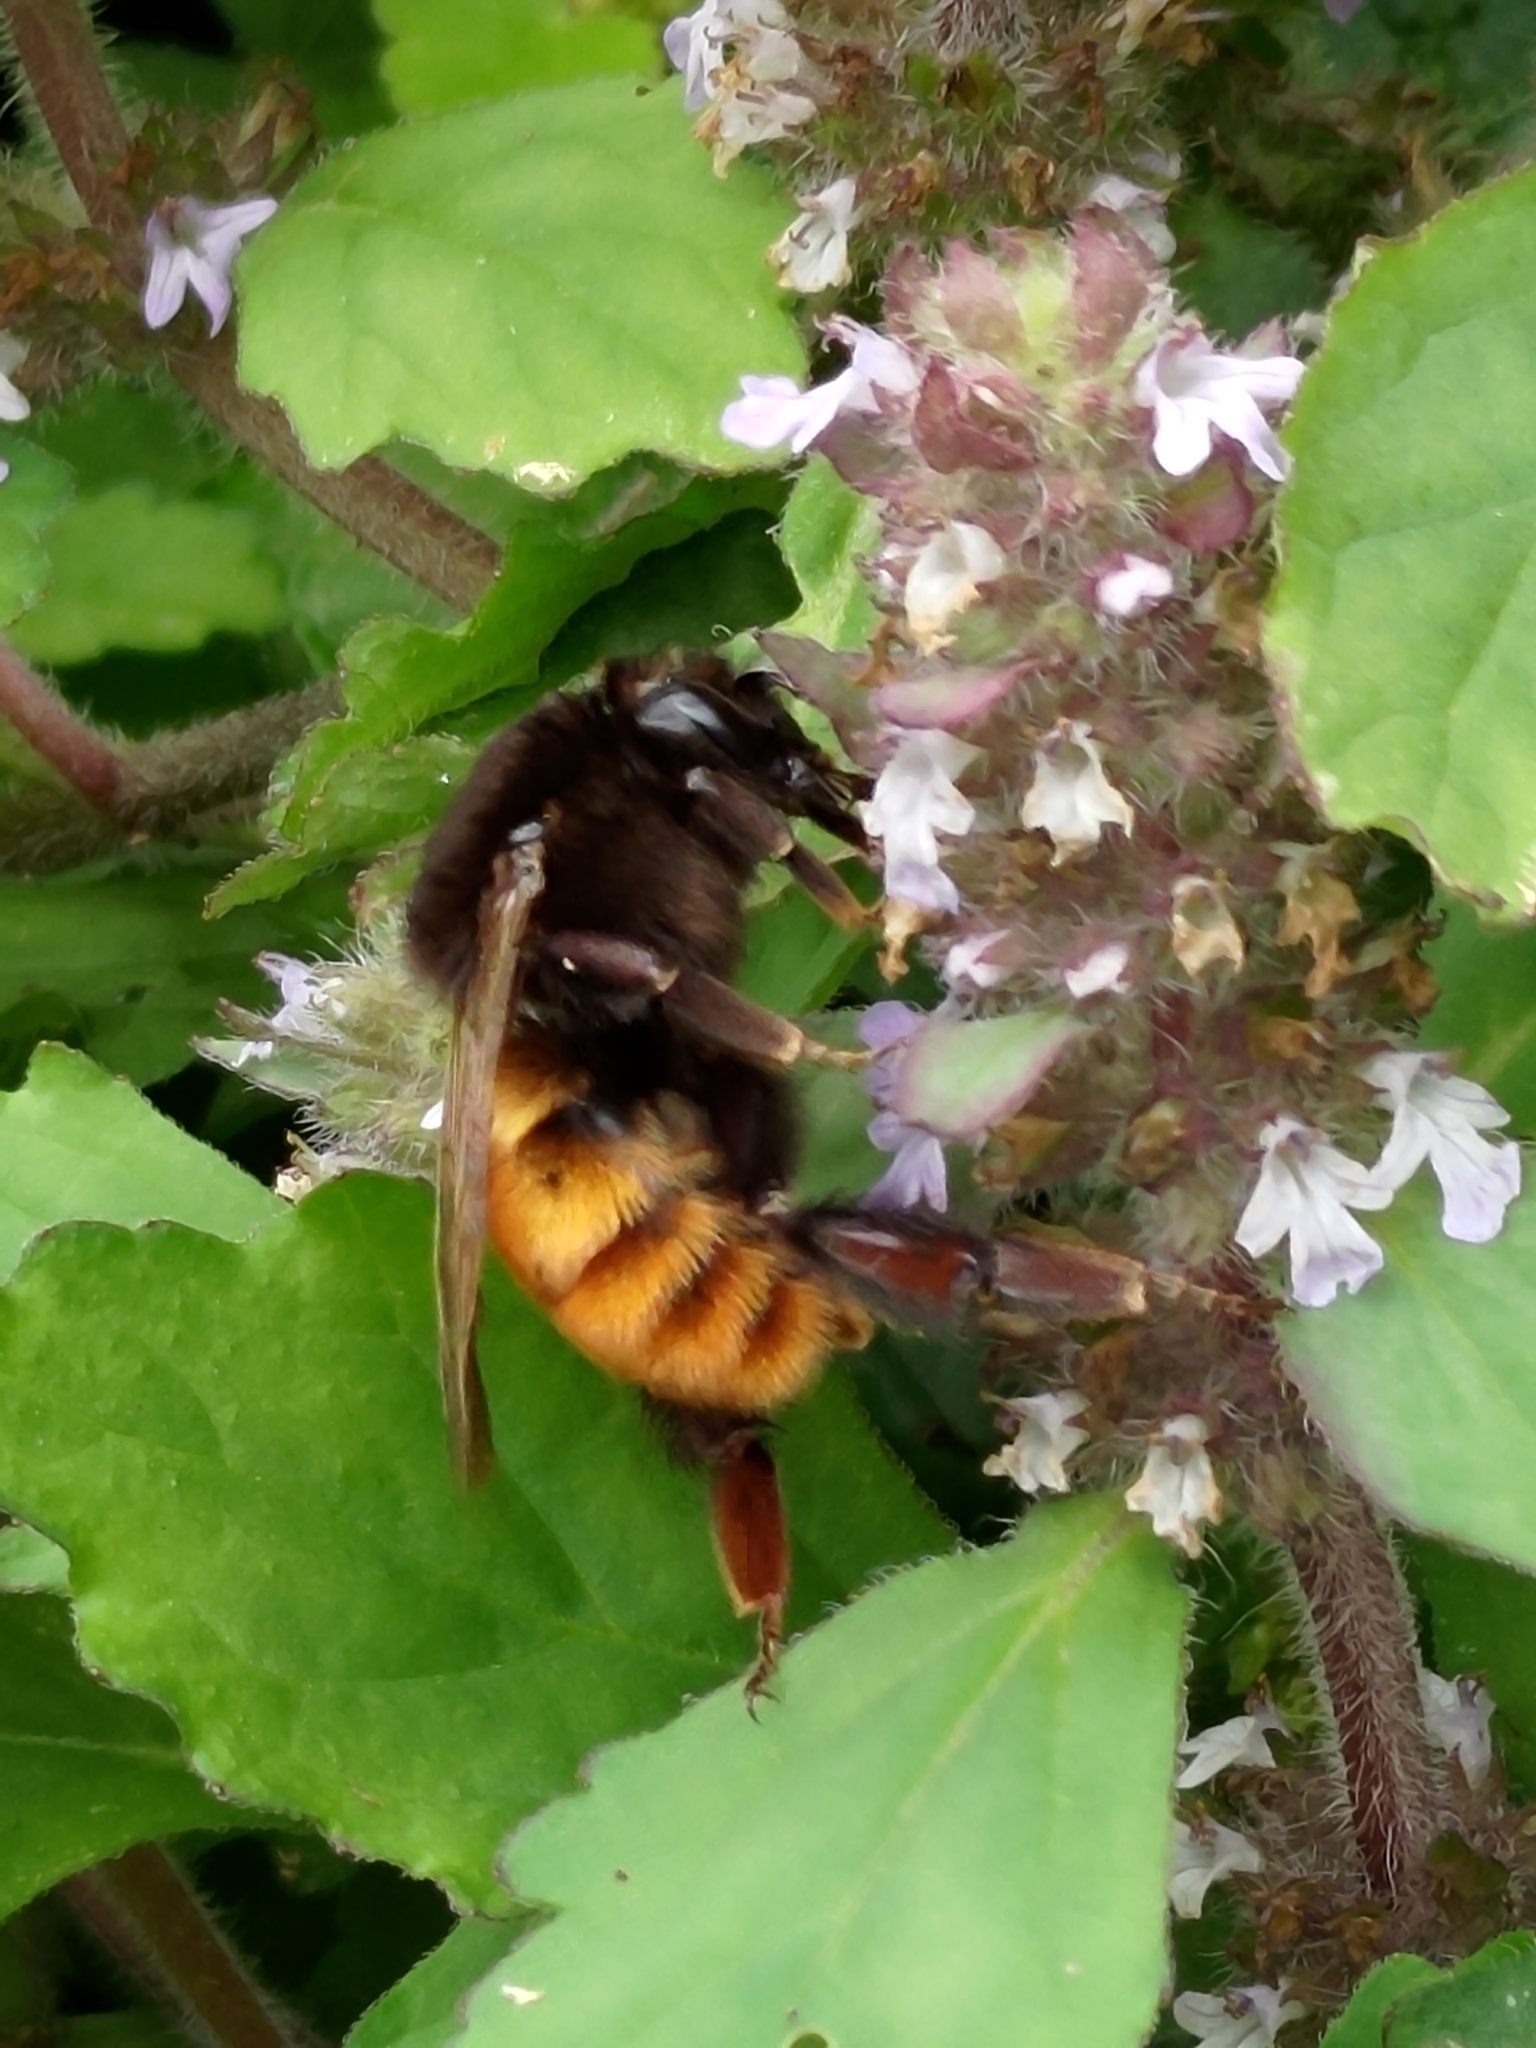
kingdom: Animalia
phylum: Arthropoda
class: Insecta
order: Hymenoptera
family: Apidae
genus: Bombus
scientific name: Bombus bicoloratus
